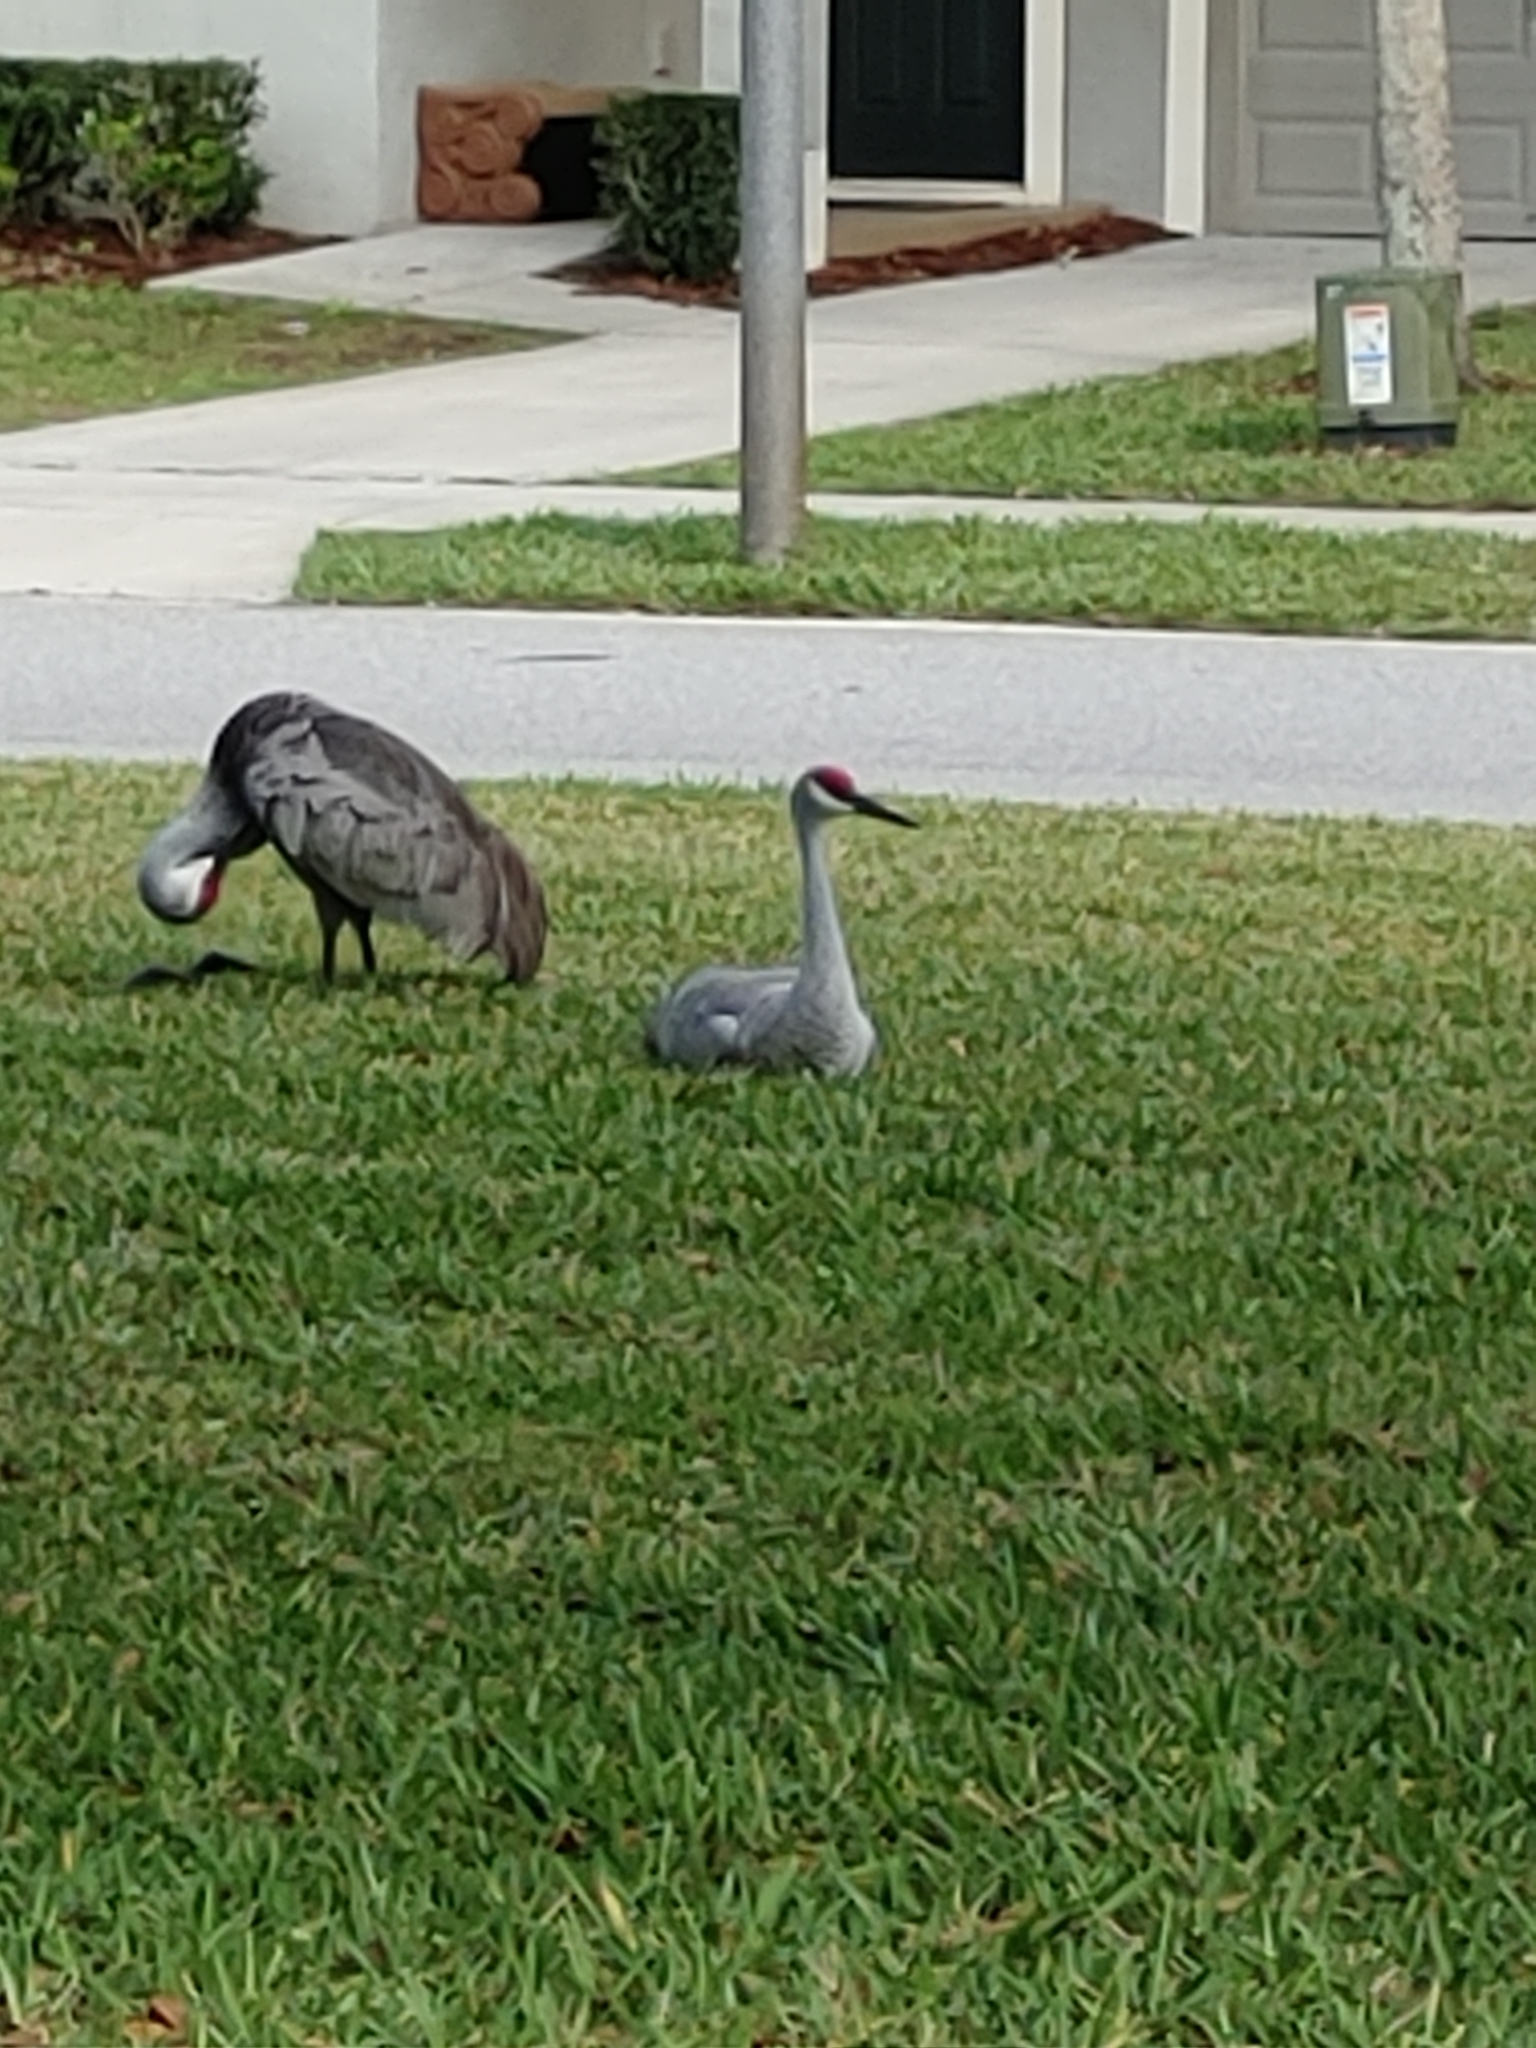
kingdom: Animalia
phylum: Chordata
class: Aves
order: Gruiformes
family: Gruidae
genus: Grus
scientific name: Grus canadensis
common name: Sandhill crane
